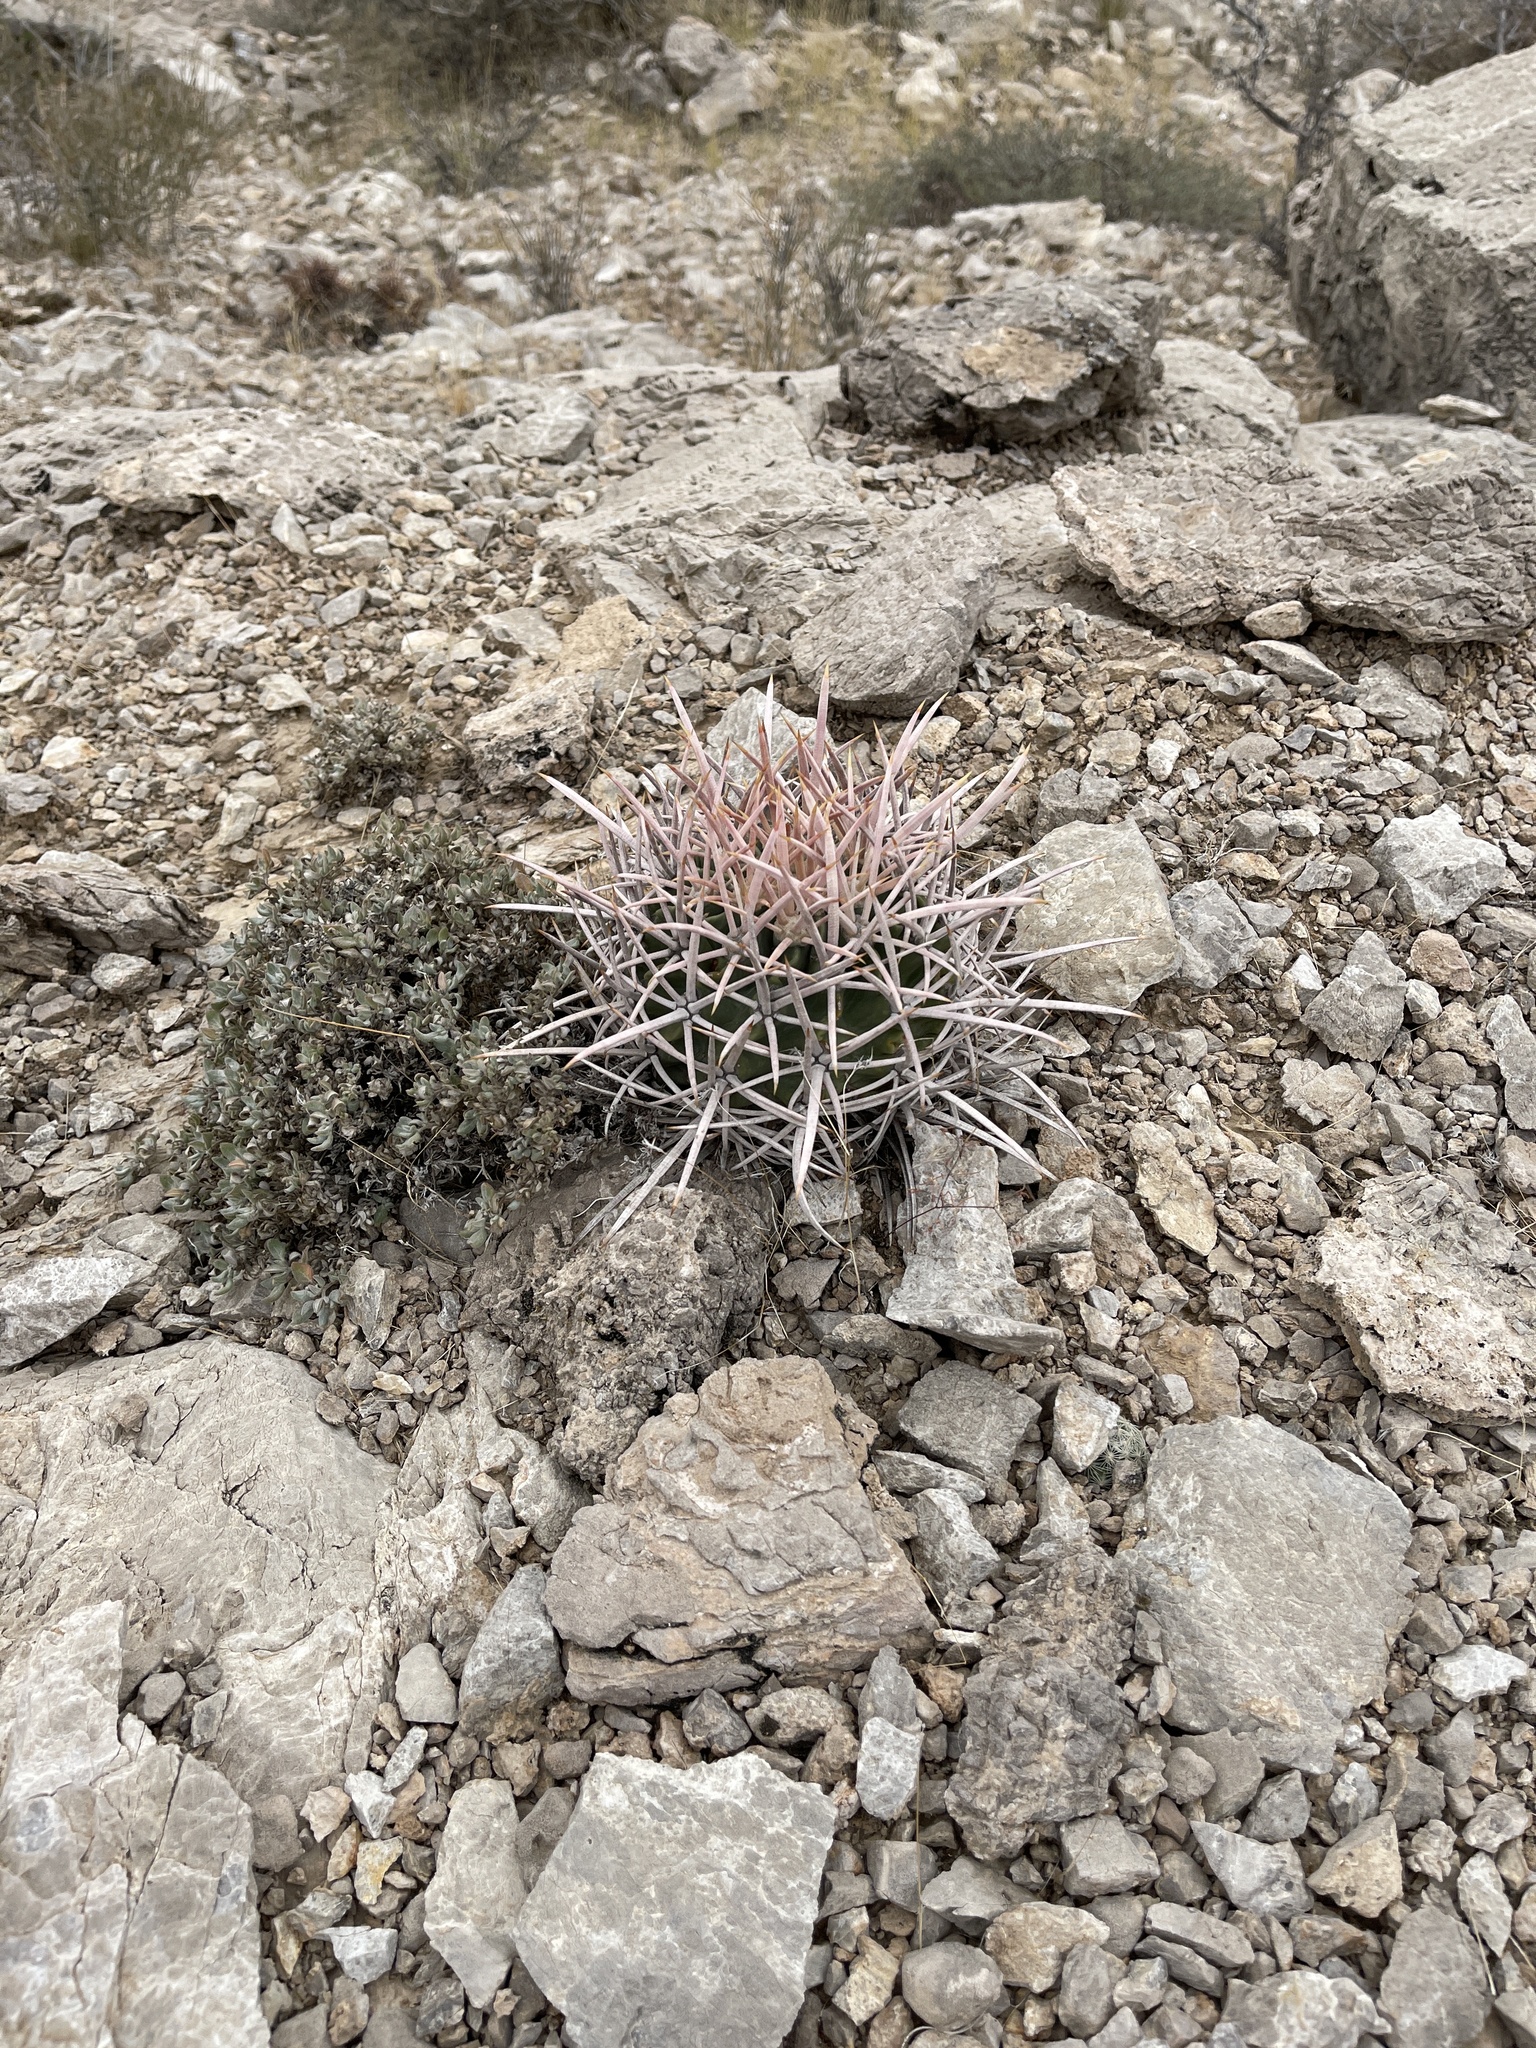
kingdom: Plantae
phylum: Tracheophyta
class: Magnoliopsida
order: Caryophyllales
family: Cactaceae
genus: Echinocactus
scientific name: Echinocactus polycephalus
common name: Cottontop cactus
